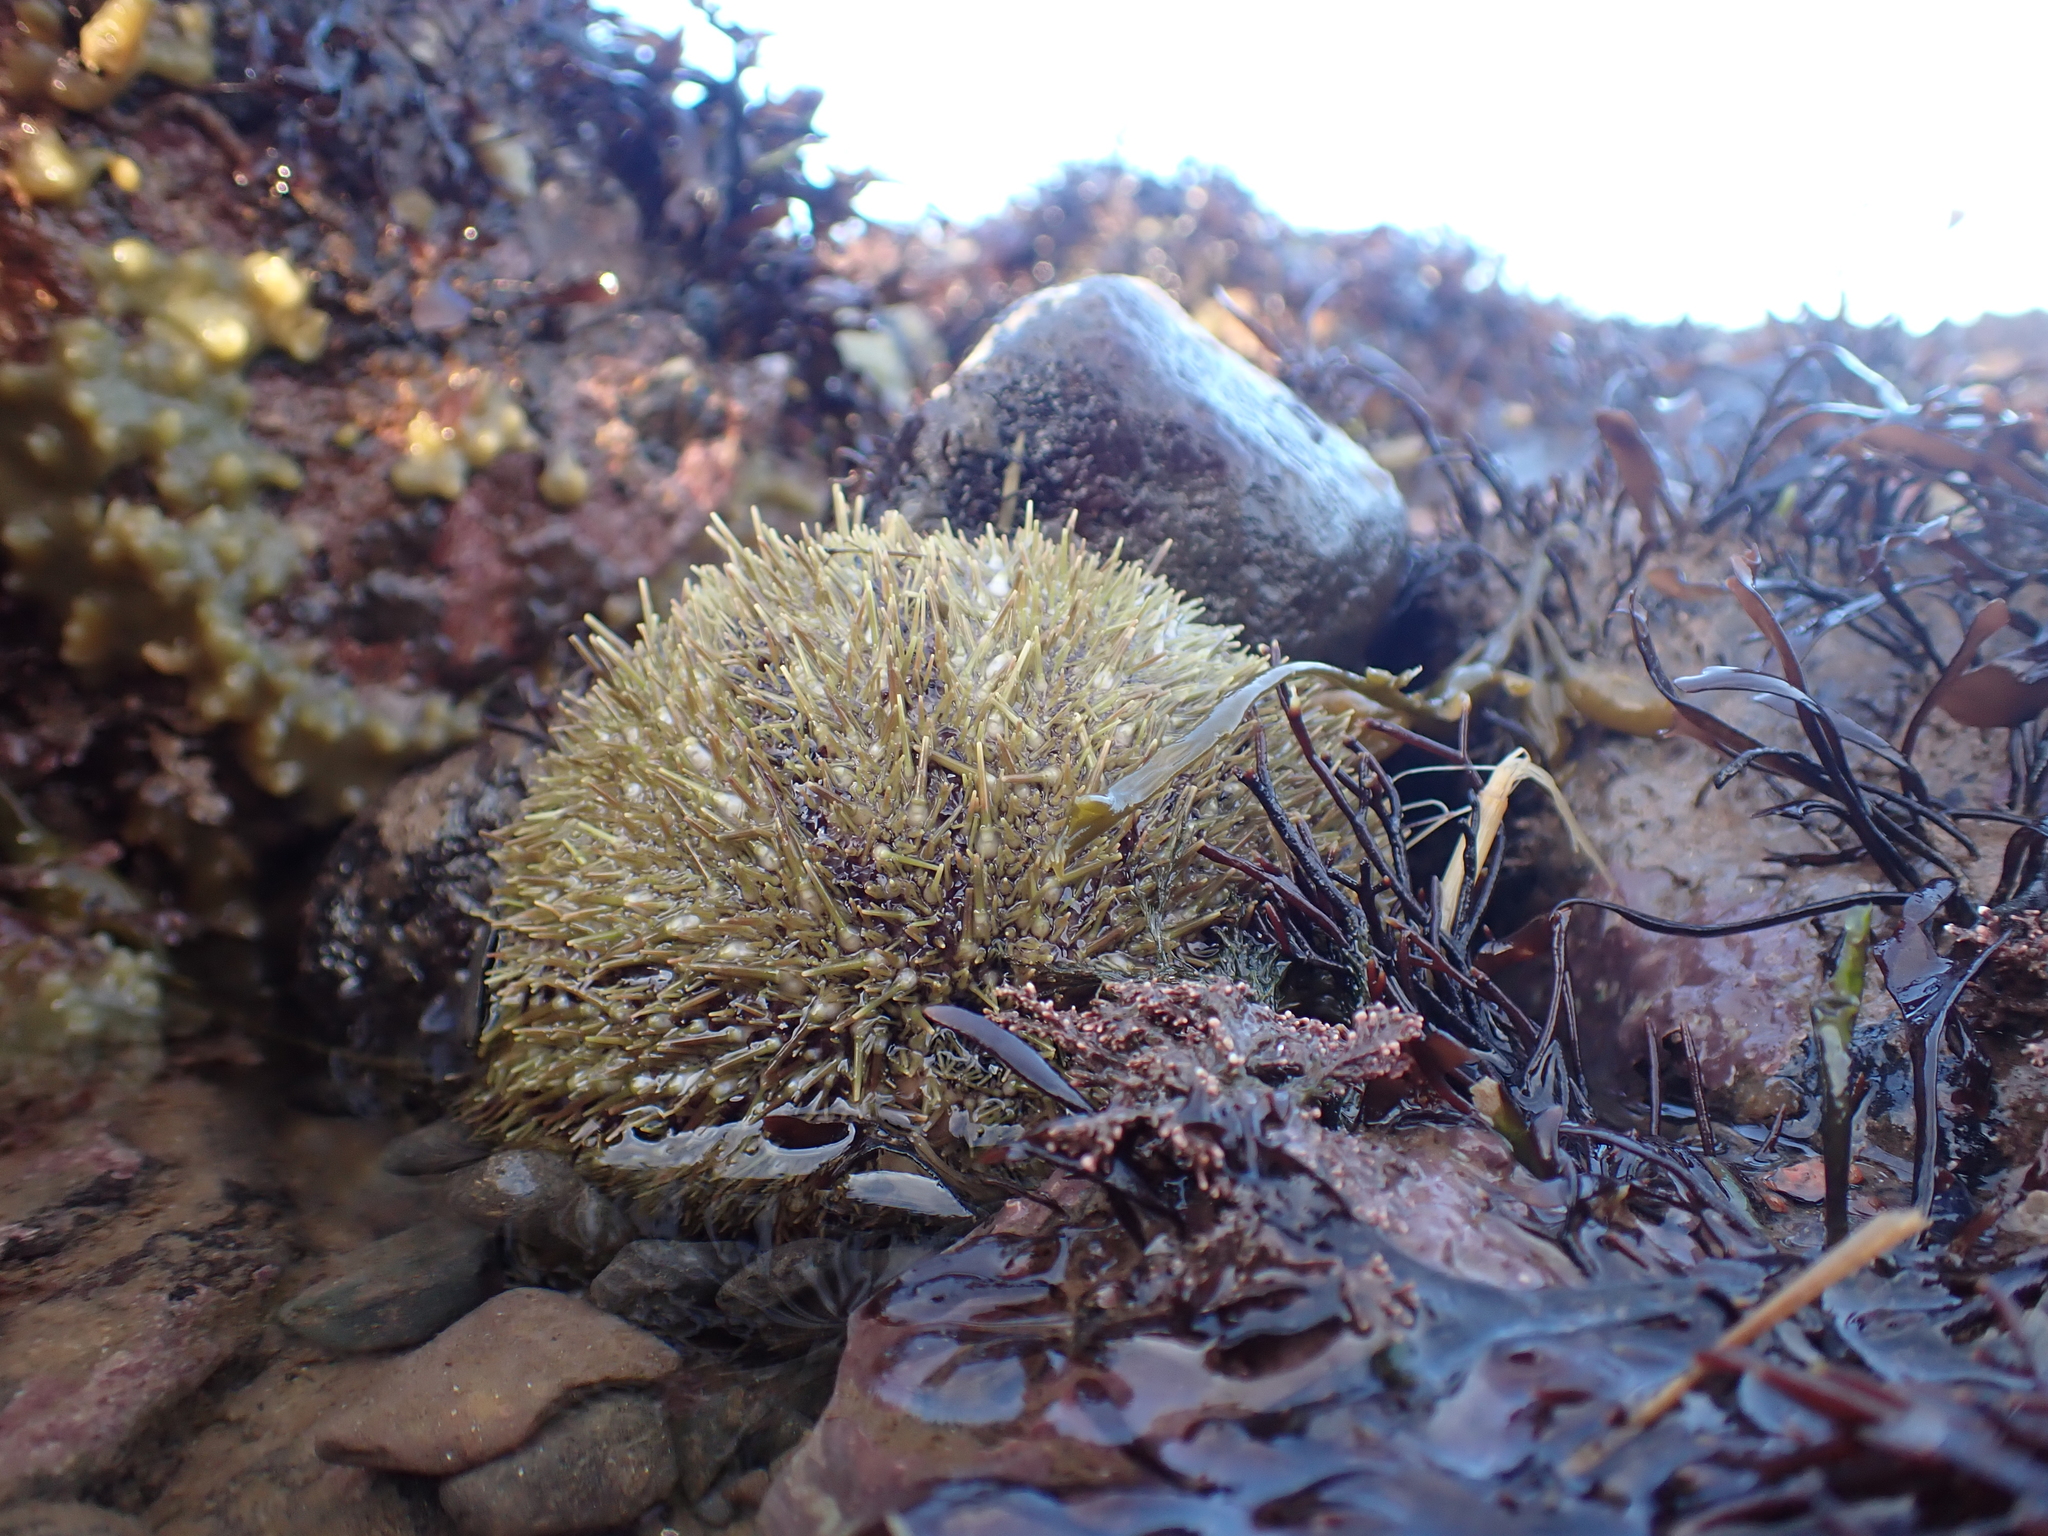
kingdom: Animalia
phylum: Echinodermata
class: Echinoidea
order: Camarodonta
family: Strongylocentrotidae
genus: Strongylocentrotus
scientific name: Strongylocentrotus droebachiensis
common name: Northern sea urchin
